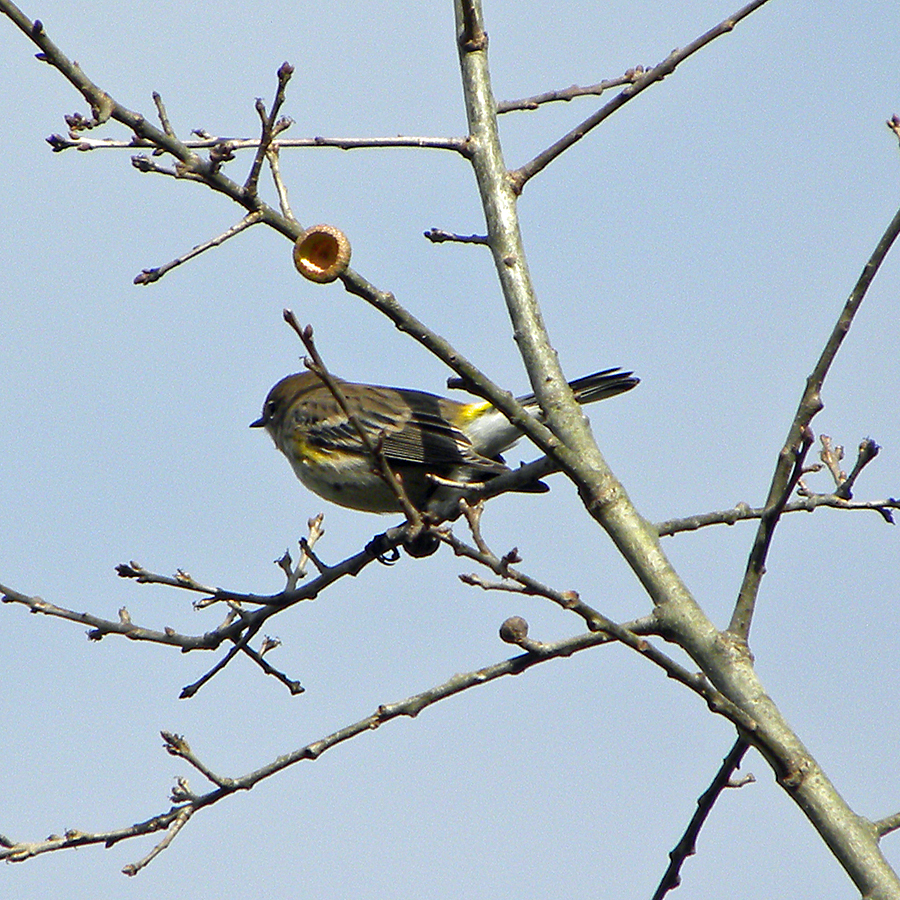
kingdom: Animalia
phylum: Chordata
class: Aves
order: Passeriformes
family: Parulidae
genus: Setophaga
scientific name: Setophaga coronata
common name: Myrtle warbler
